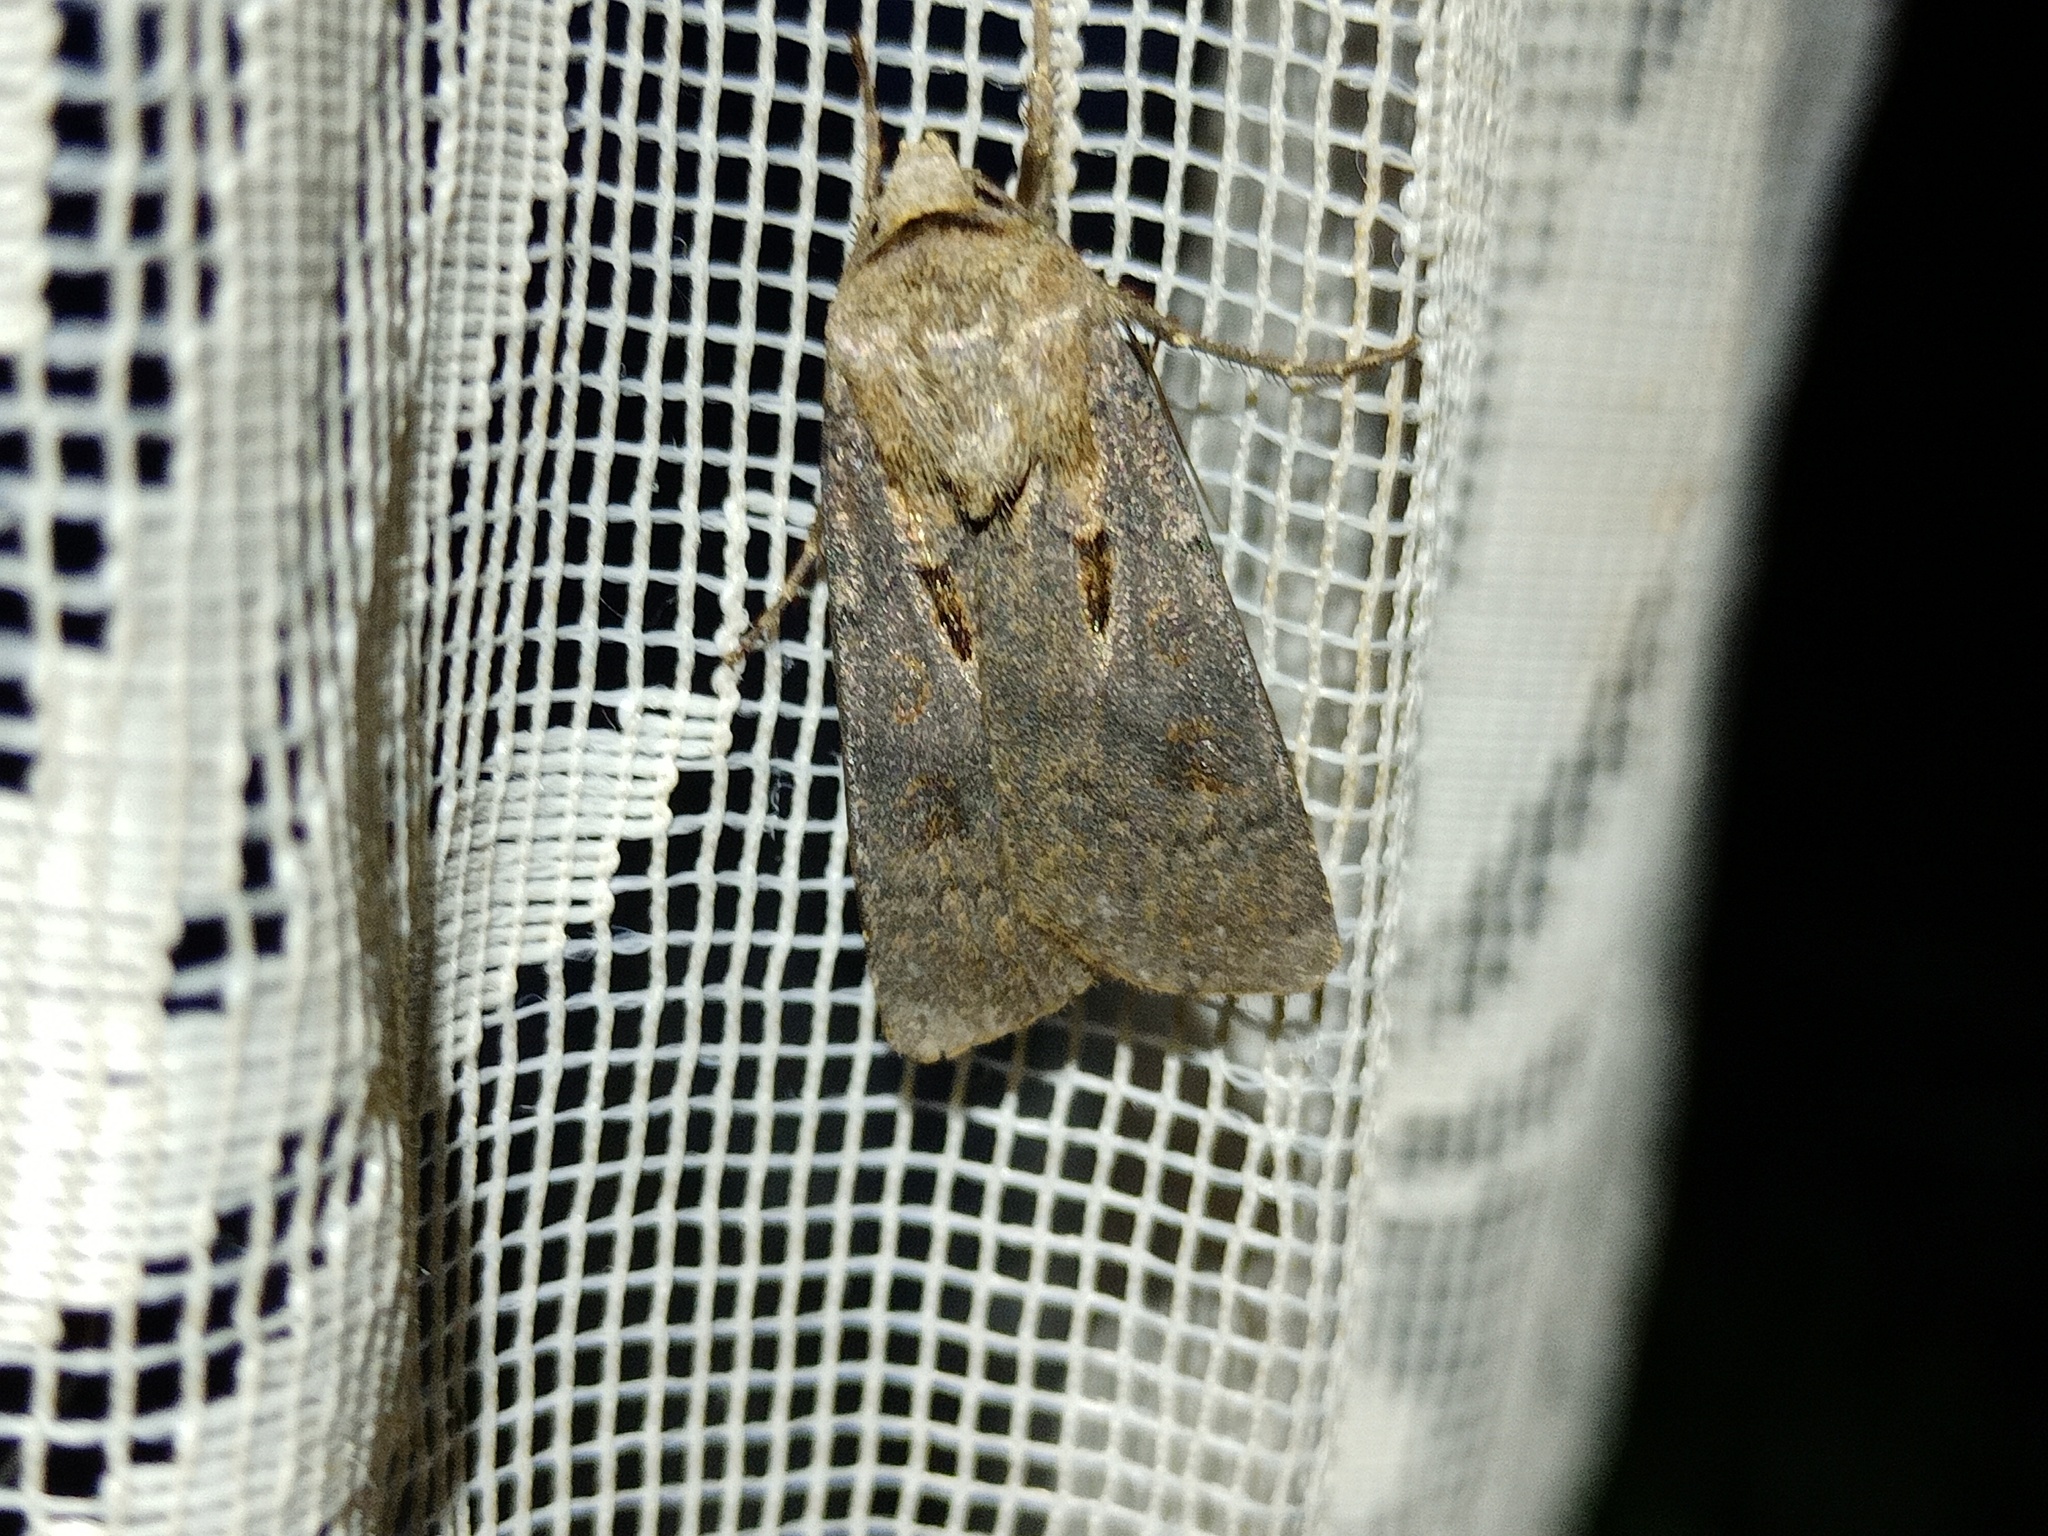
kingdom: Animalia
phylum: Arthropoda
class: Insecta
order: Lepidoptera
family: Noctuidae
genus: Agrotis
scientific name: Agrotis exclamationis
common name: Heart and dart
